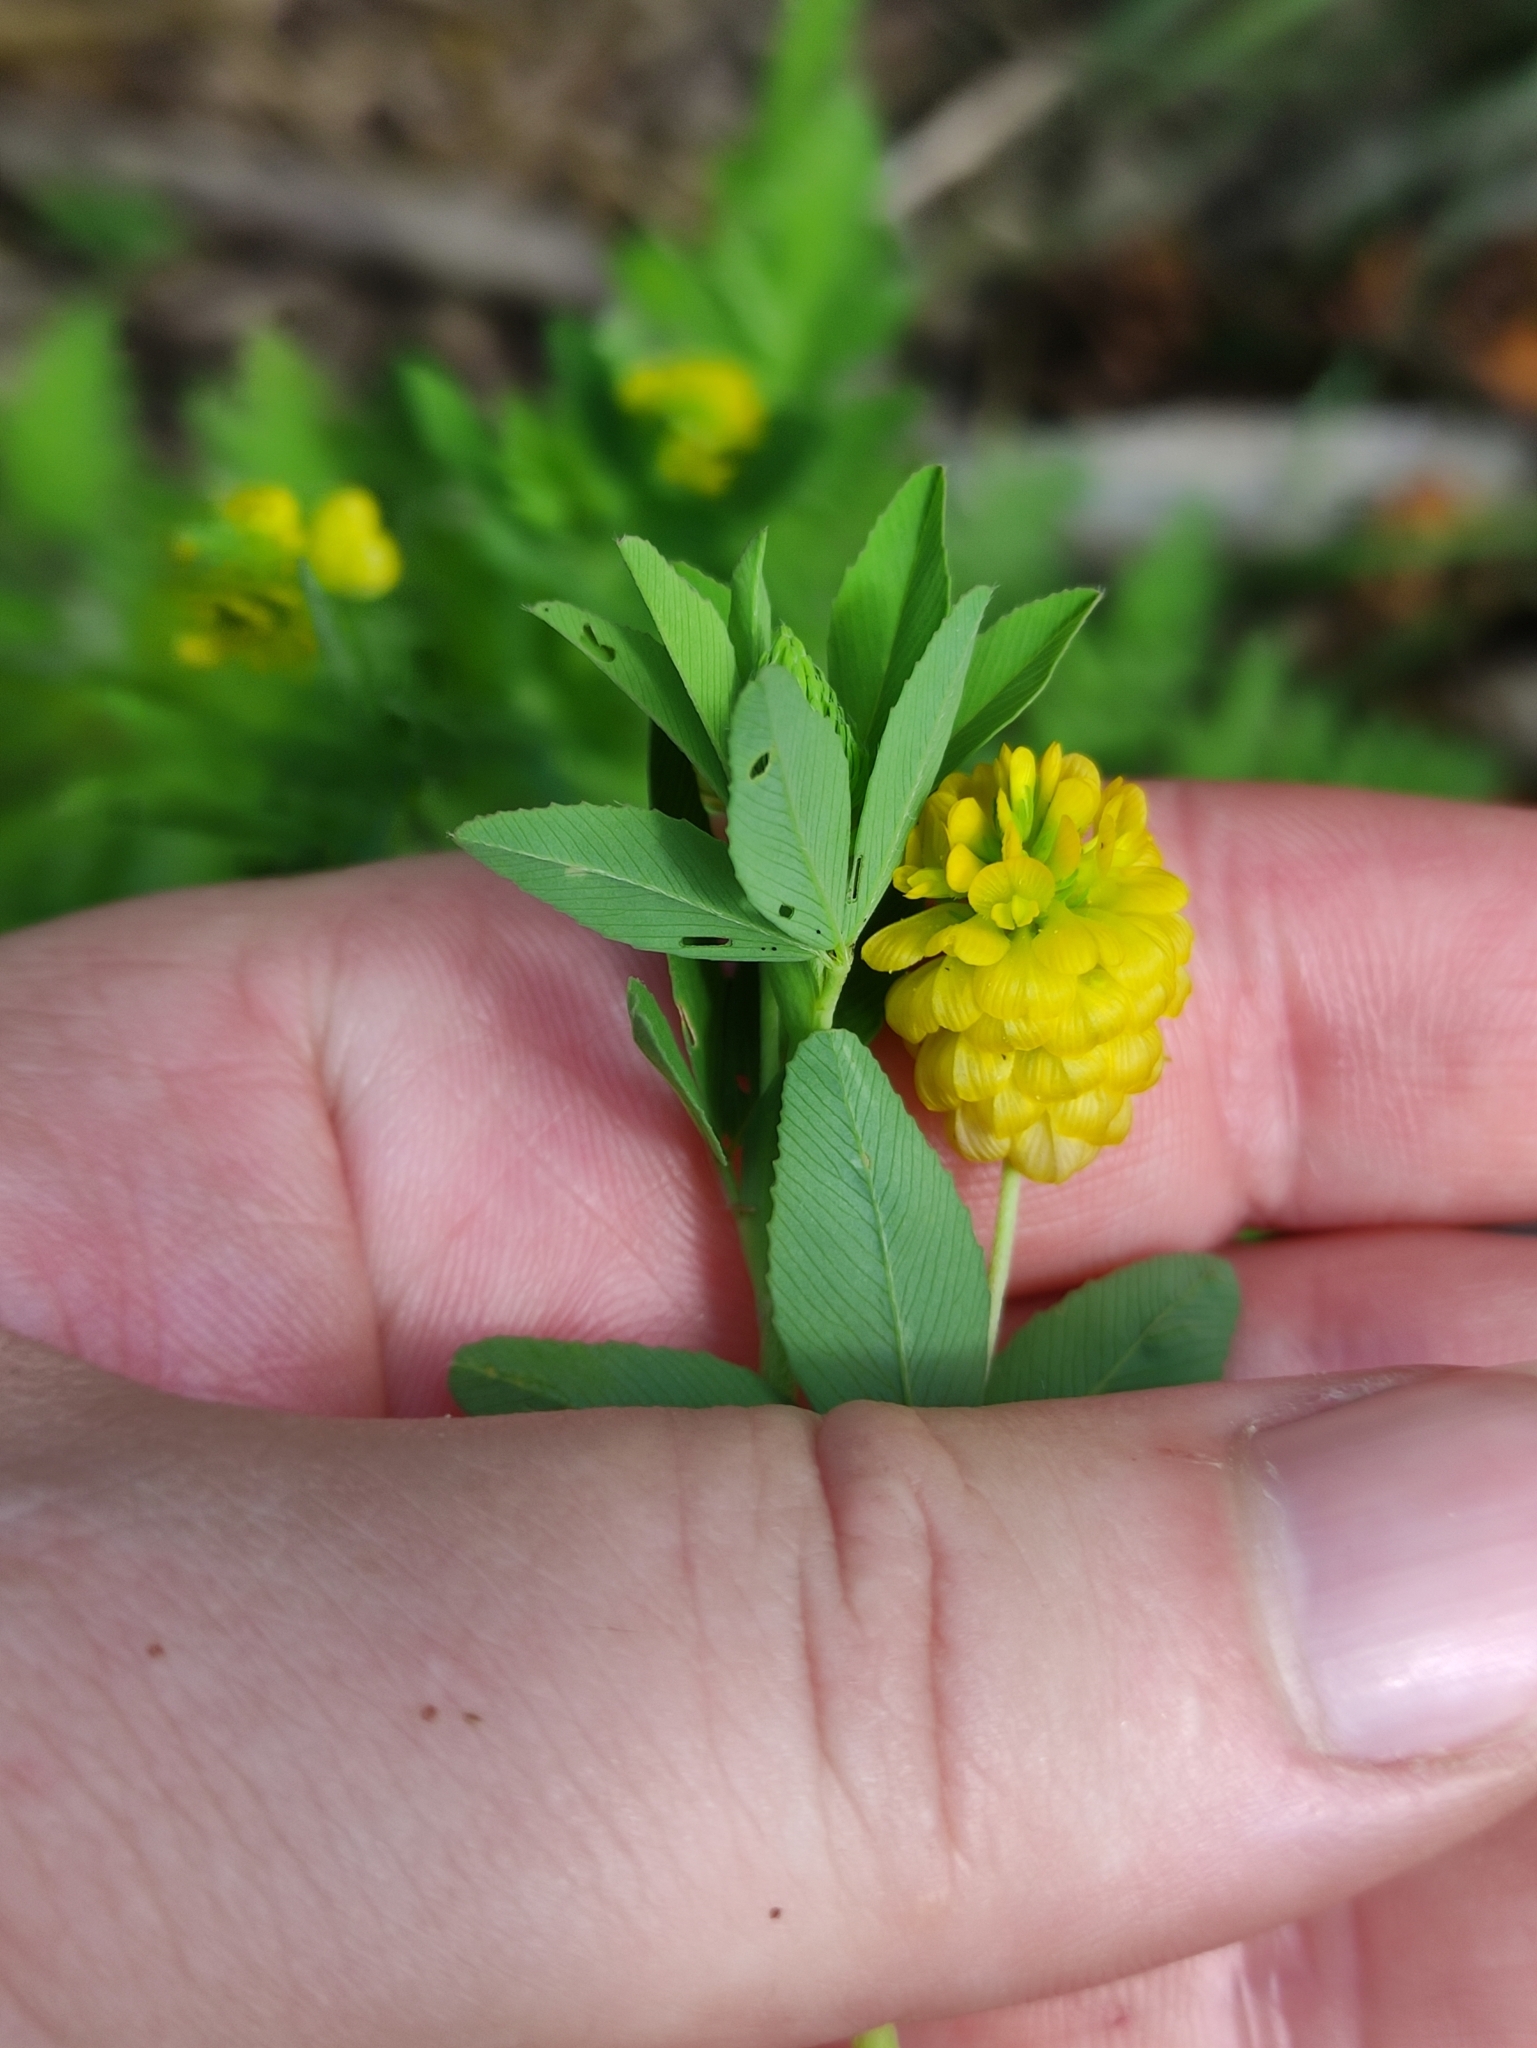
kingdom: Plantae
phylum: Tracheophyta
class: Magnoliopsida
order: Fabales
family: Fabaceae
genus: Trifolium
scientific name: Trifolium aureum
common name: Golden clover
